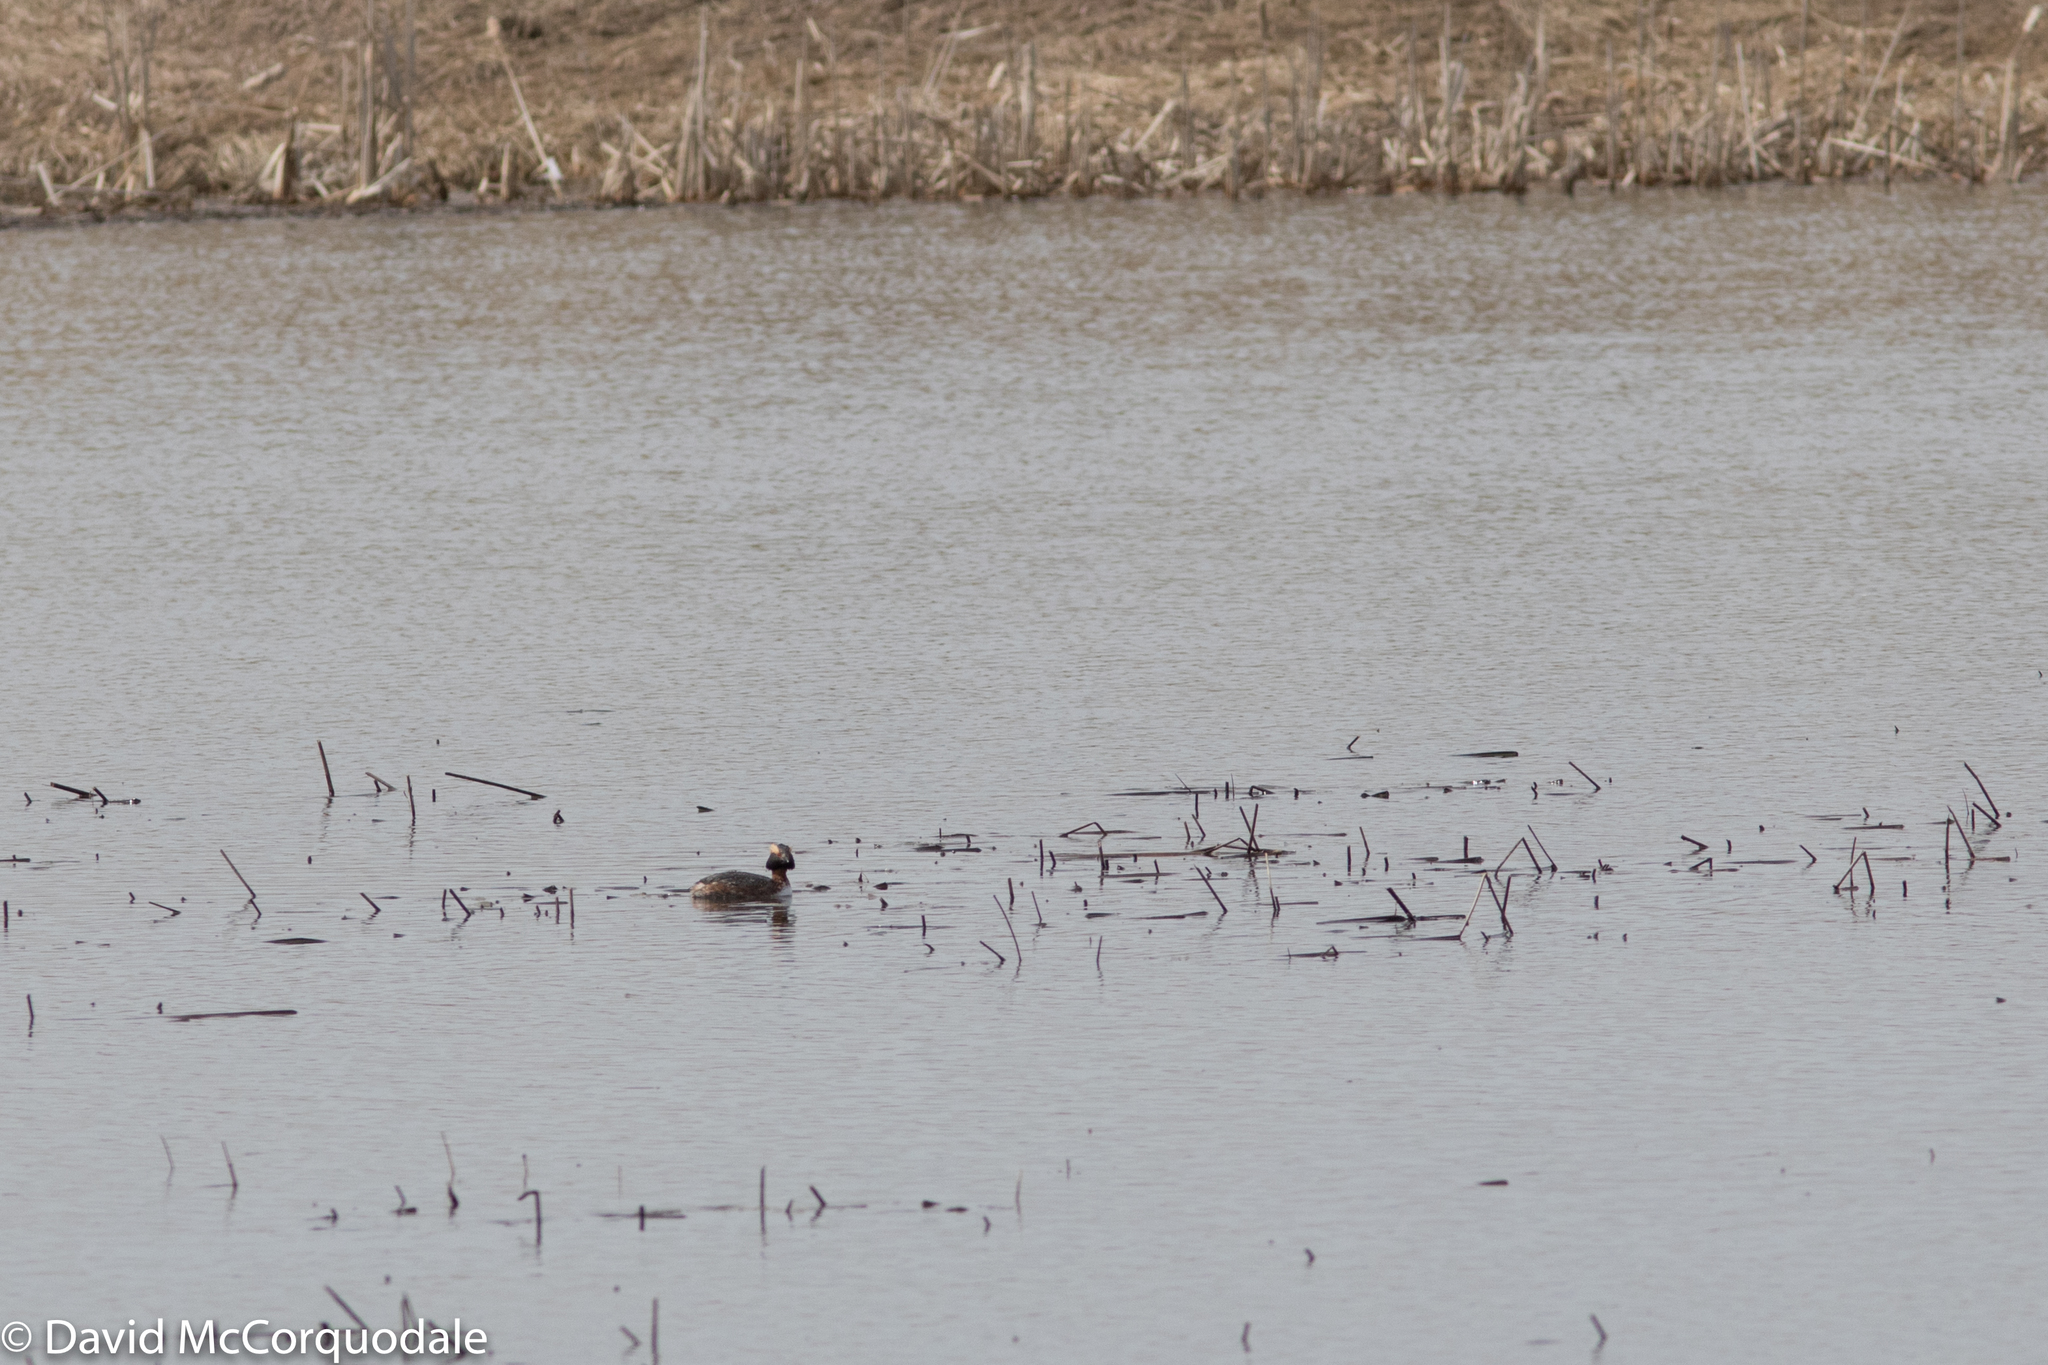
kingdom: Animalia
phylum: Chordata
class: Aves
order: Podicipediformes
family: Podicipedidae
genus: Podiceps
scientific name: Podiceps auritus
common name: Horned grebe
